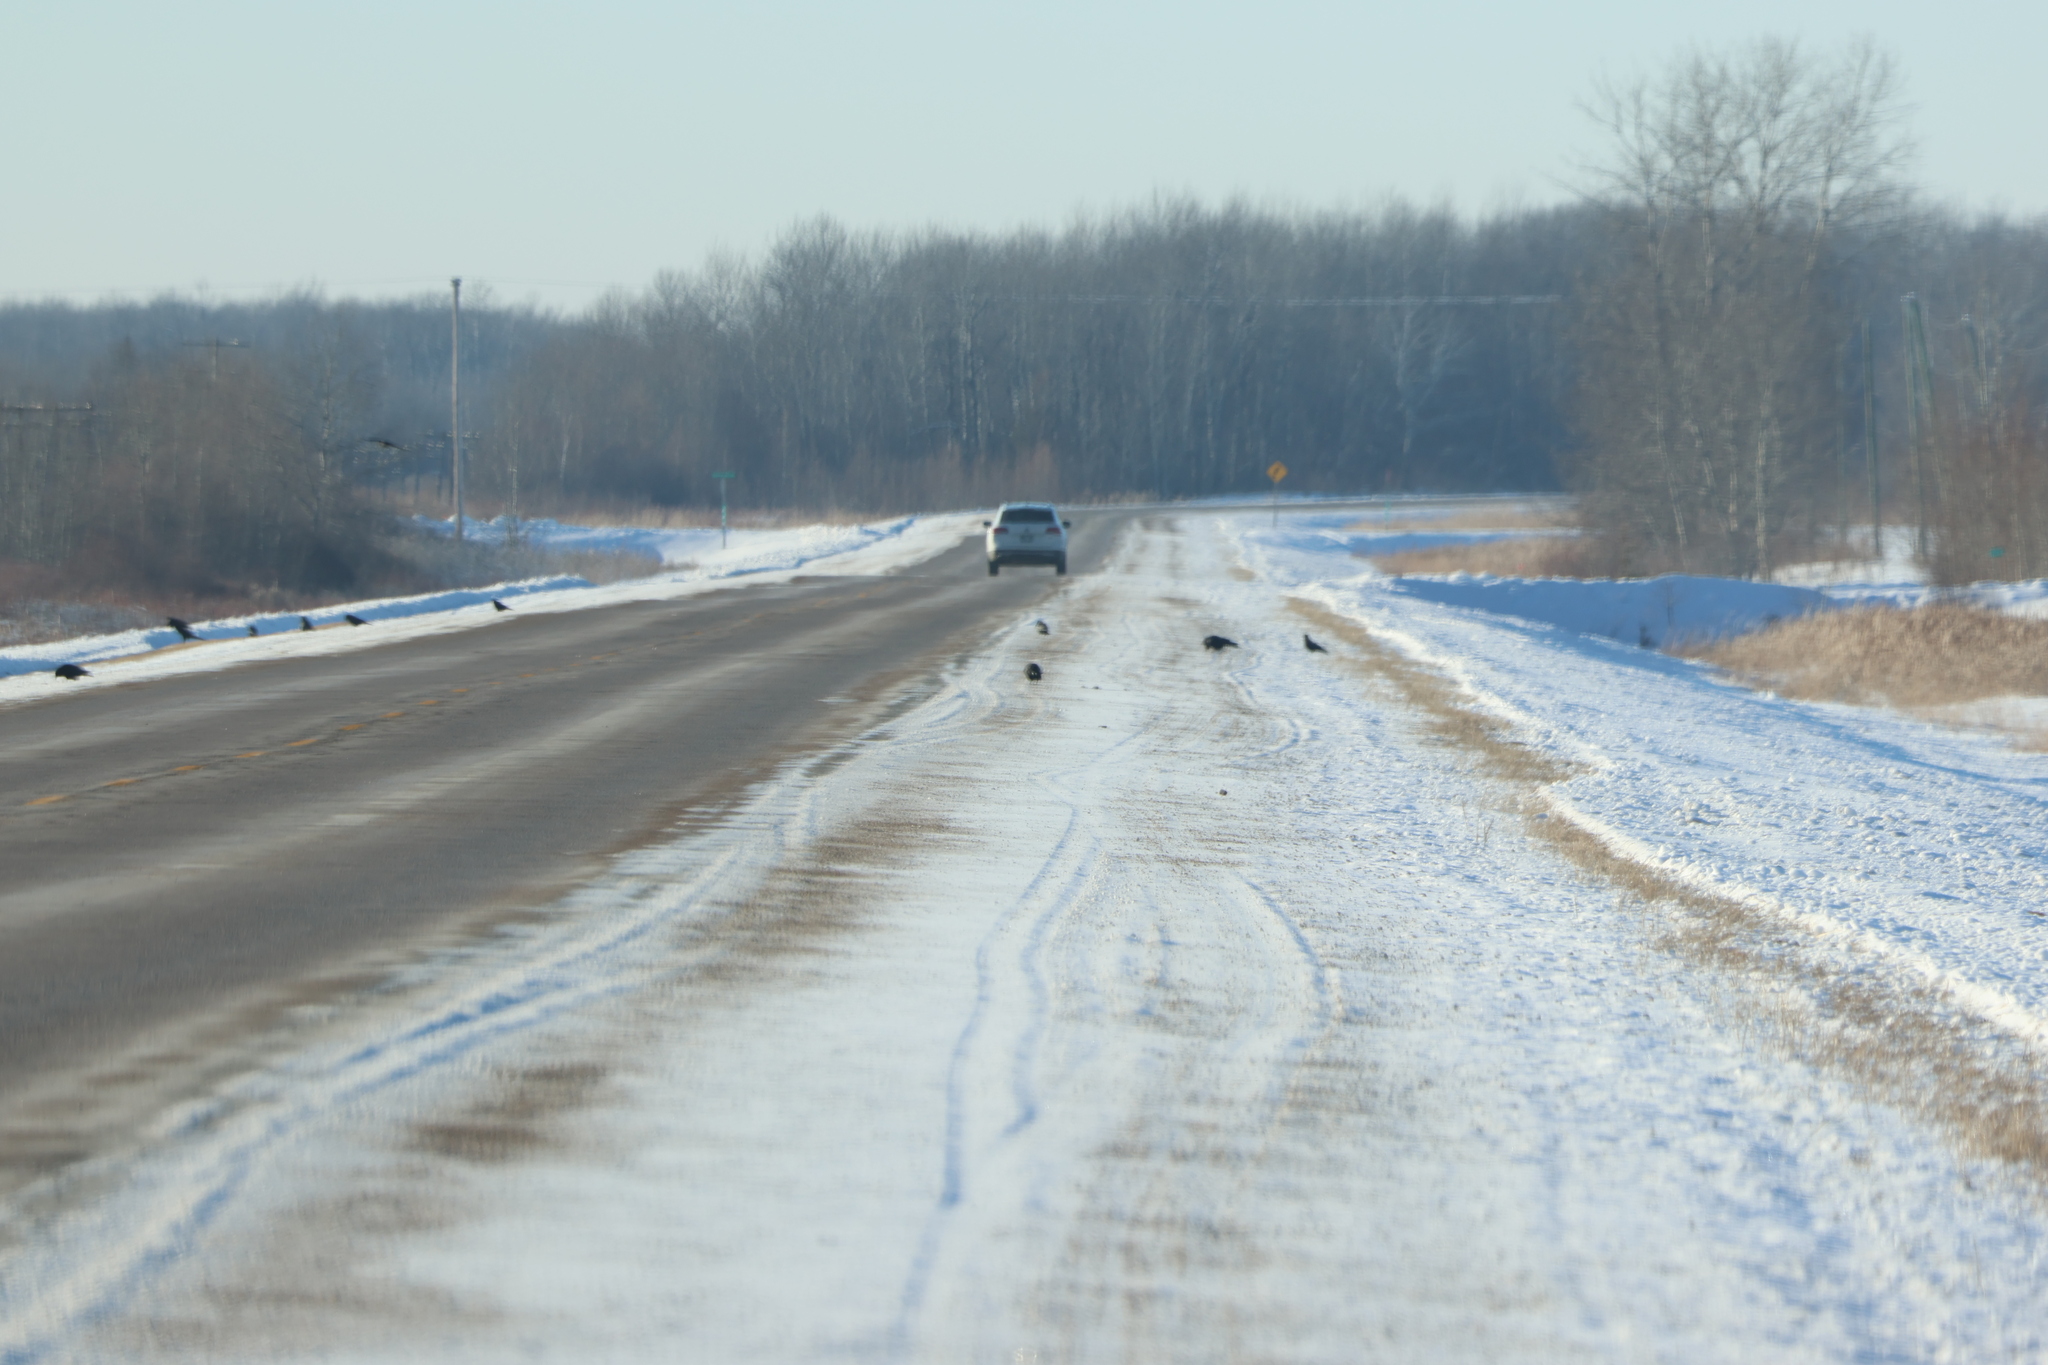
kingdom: Animalia
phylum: Chordata
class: Aves
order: Passeriformes
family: Corvidae
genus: Corvus
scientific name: Corvus brachyrhynchos
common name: American crow
